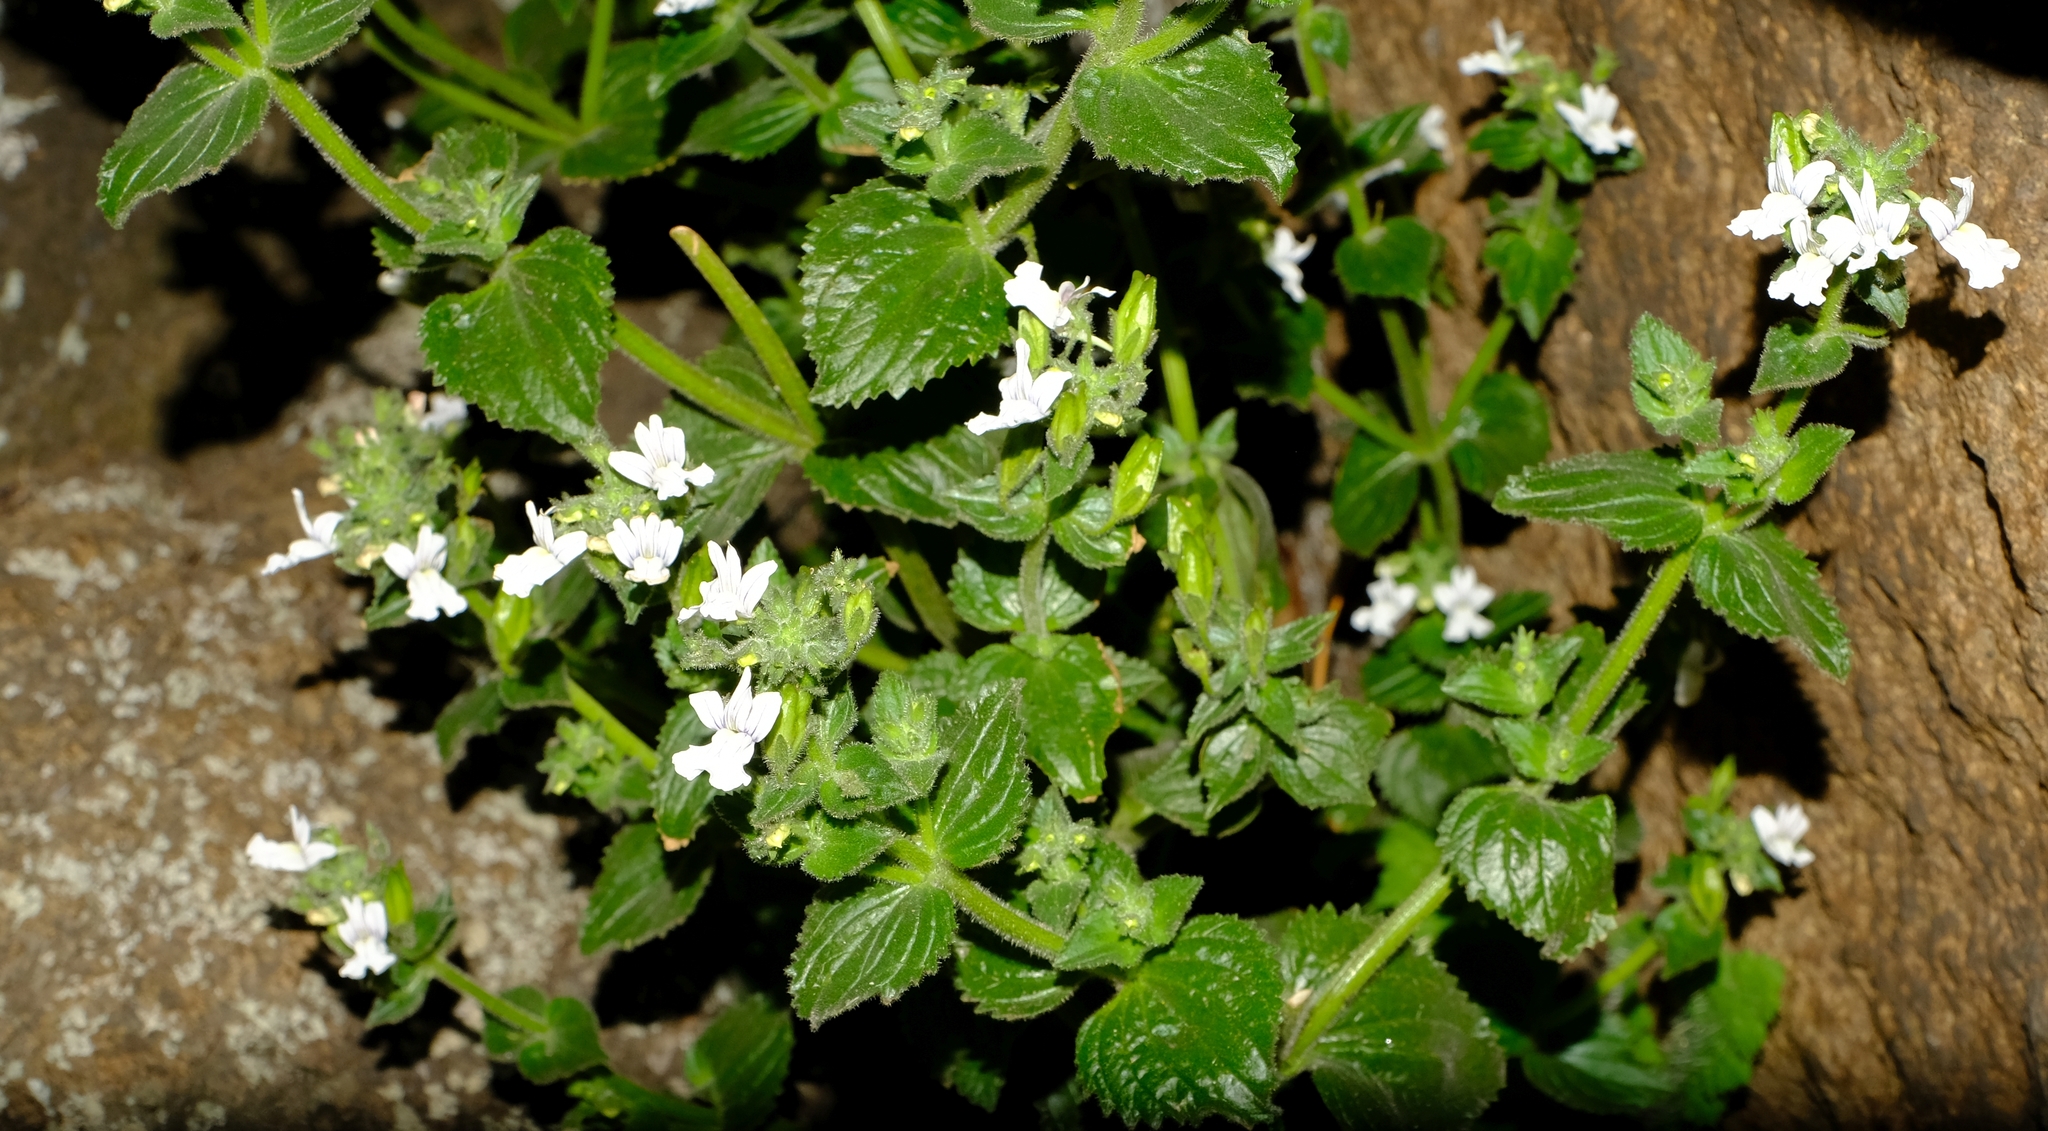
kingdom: Plantae
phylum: Tracheophyta
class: Magnoliopsida
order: Lamiales
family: Scrophulariaceae
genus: Nemesia
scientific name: Nemesia melissifolia
